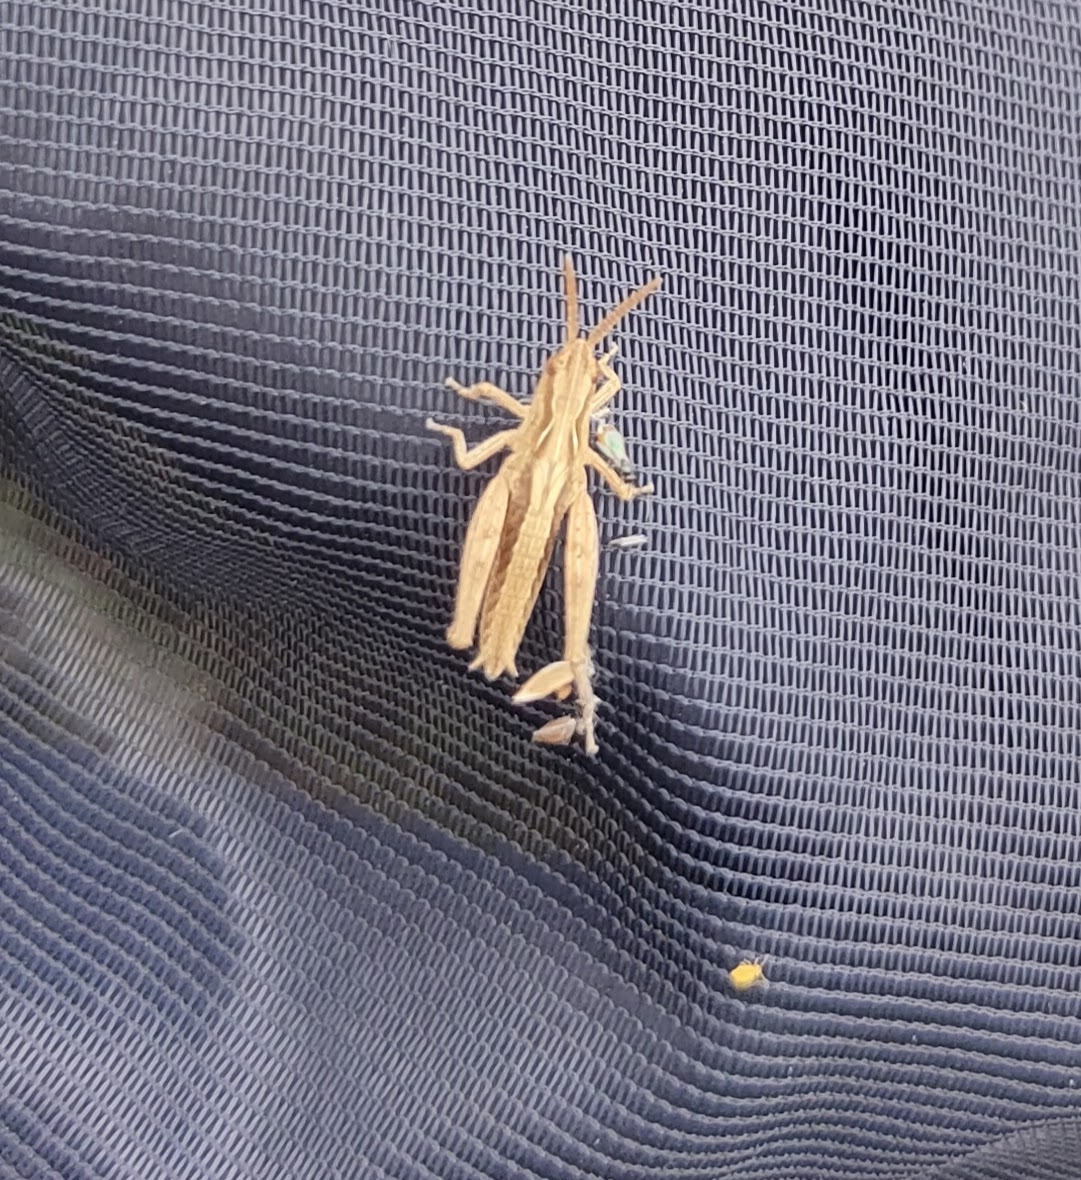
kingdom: Animalia
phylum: Arthropoda
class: Insecta
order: Orthoptera
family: Acrididae
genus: Chorthippus
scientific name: Chorthippus brunneus
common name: Field grasshopper
